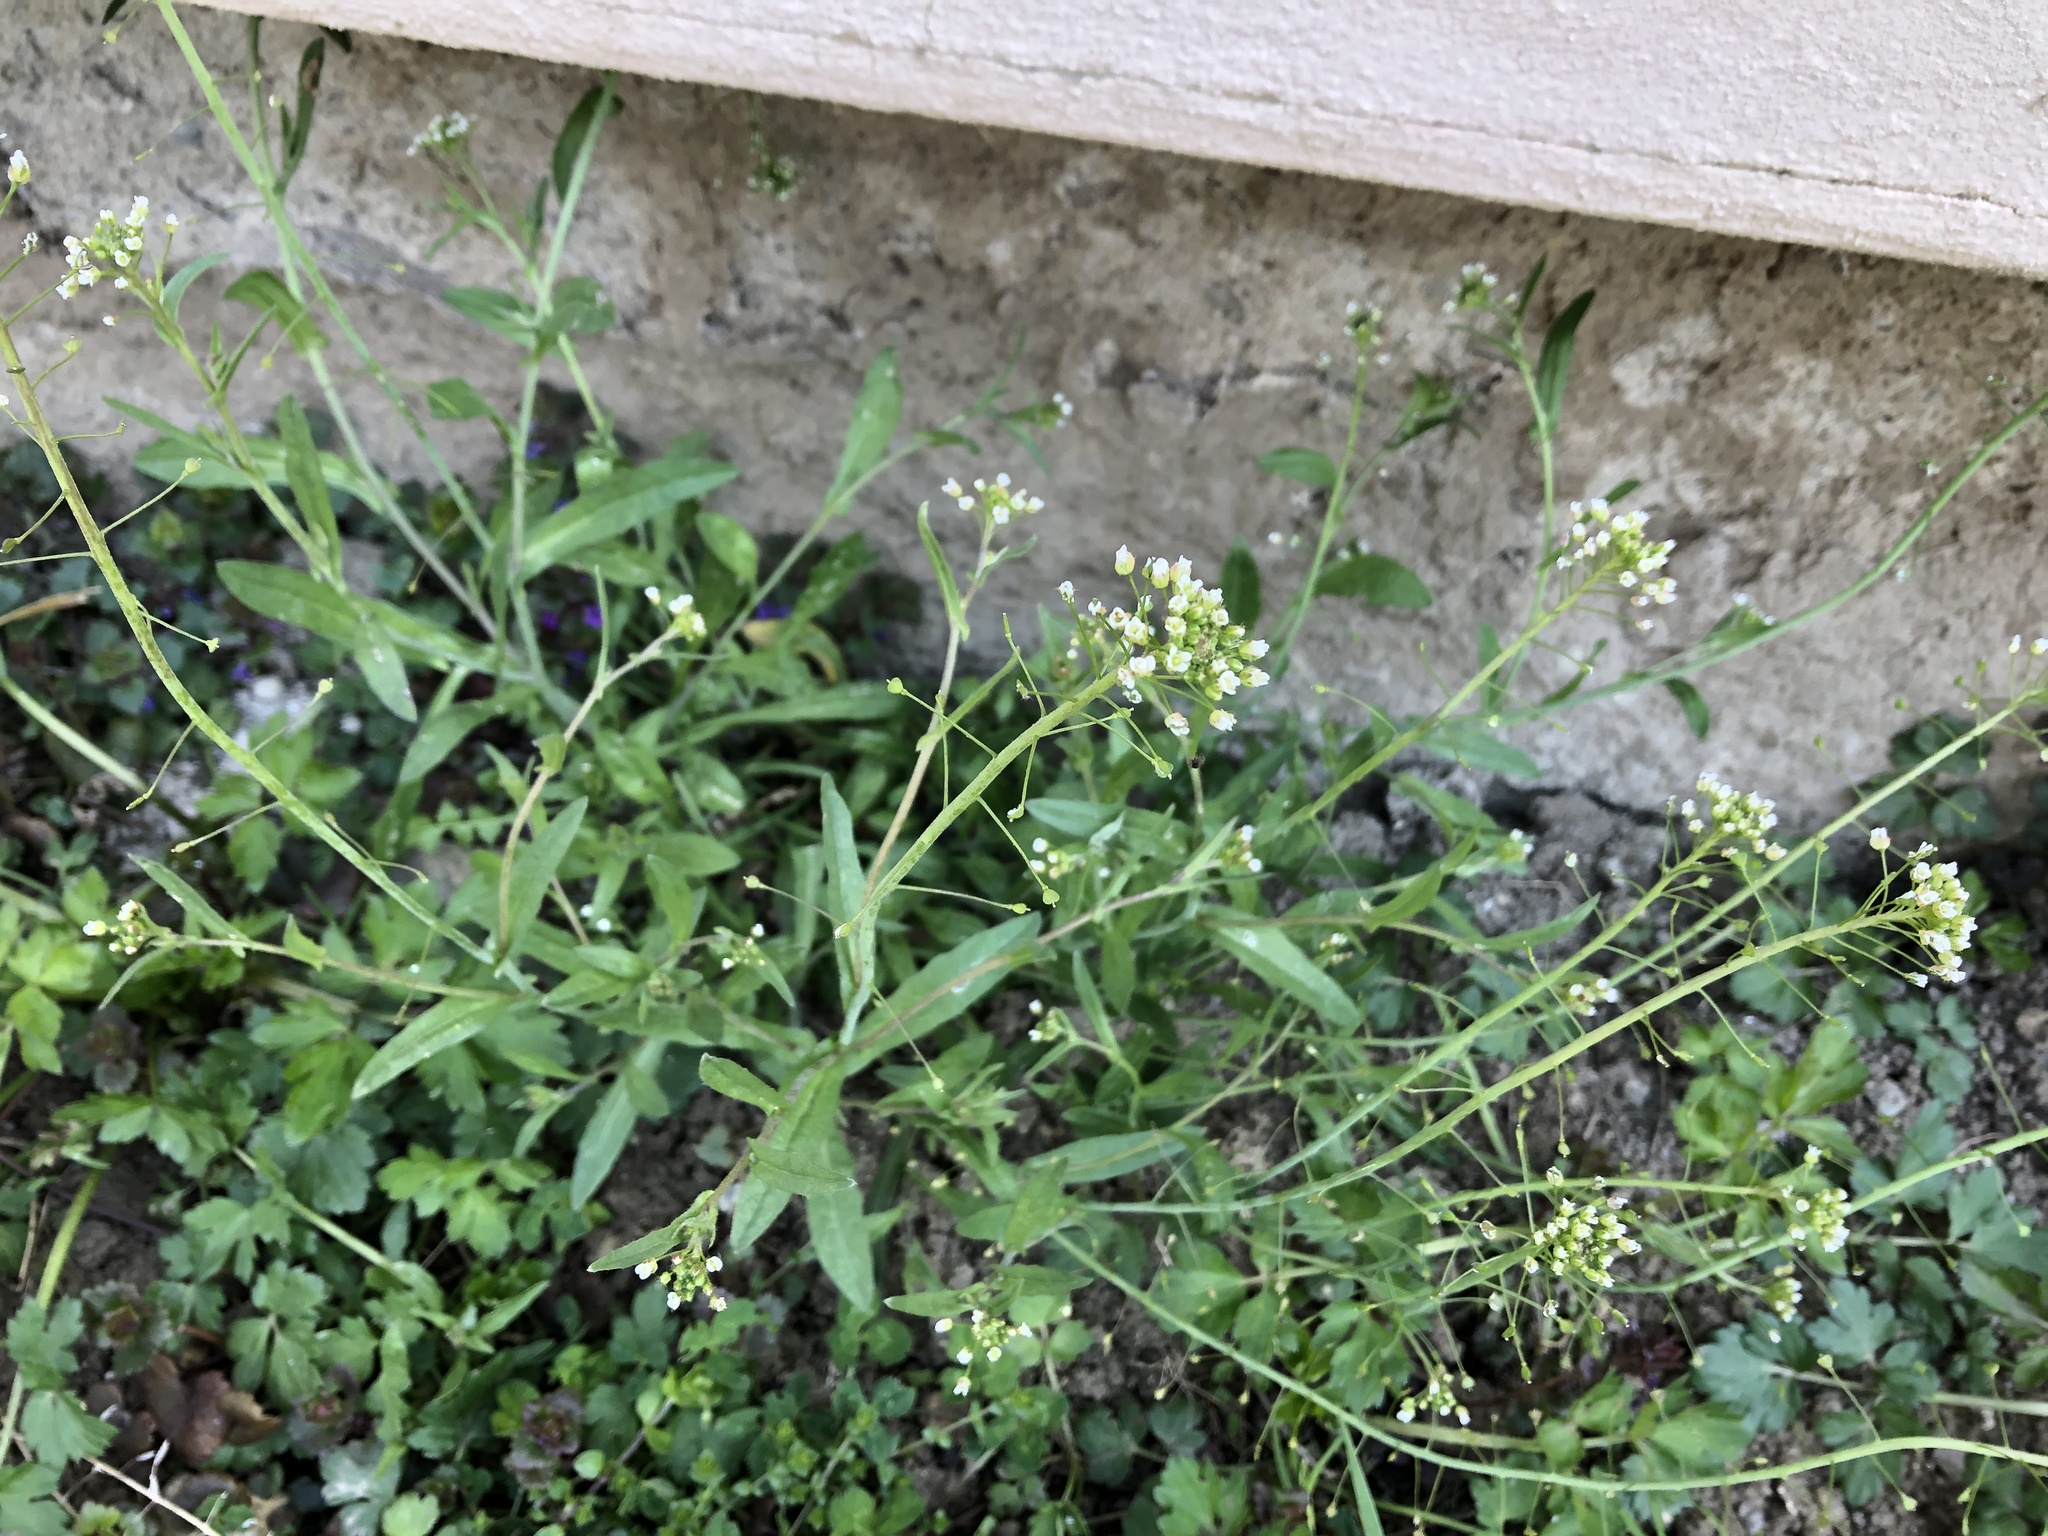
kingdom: Plantae
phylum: Tracheophyta
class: Magnoliopsida
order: Brassicales
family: Brassicaceae
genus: Capsella
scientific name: Capsella bursa-pastoris
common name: Shepherd's purse
